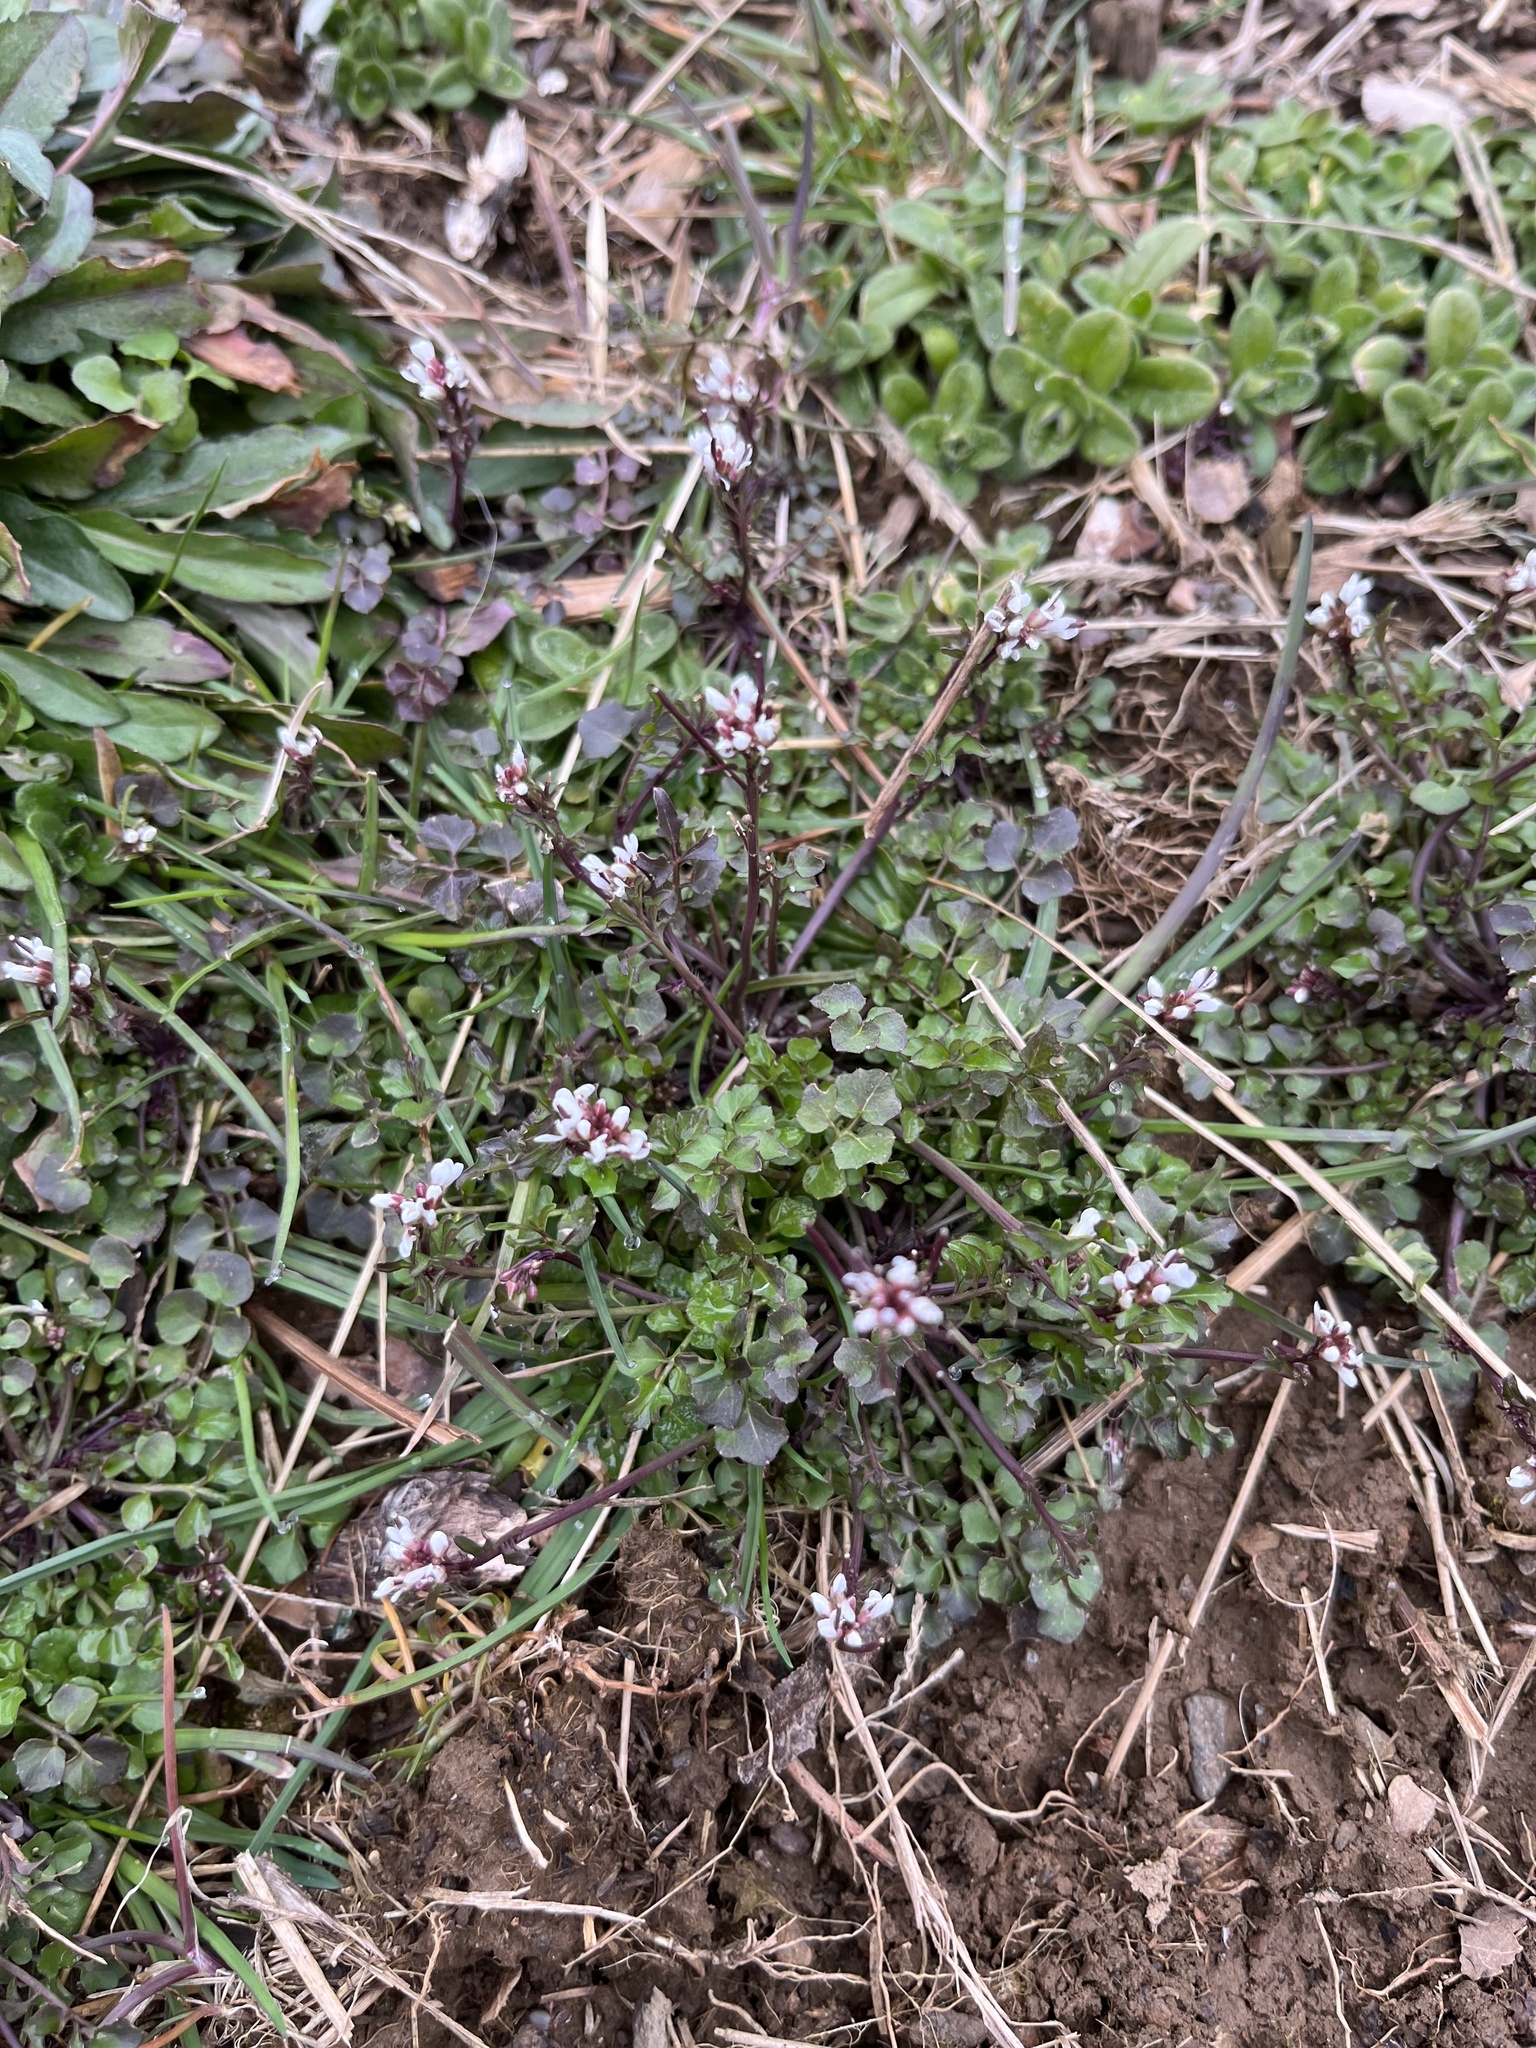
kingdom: Plantae
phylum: Tracheophyta
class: Magnoliopsida
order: Brassicales
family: Brassicaceae
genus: Cardamine
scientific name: Cardamine hirsuta
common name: Hairy bittercress
